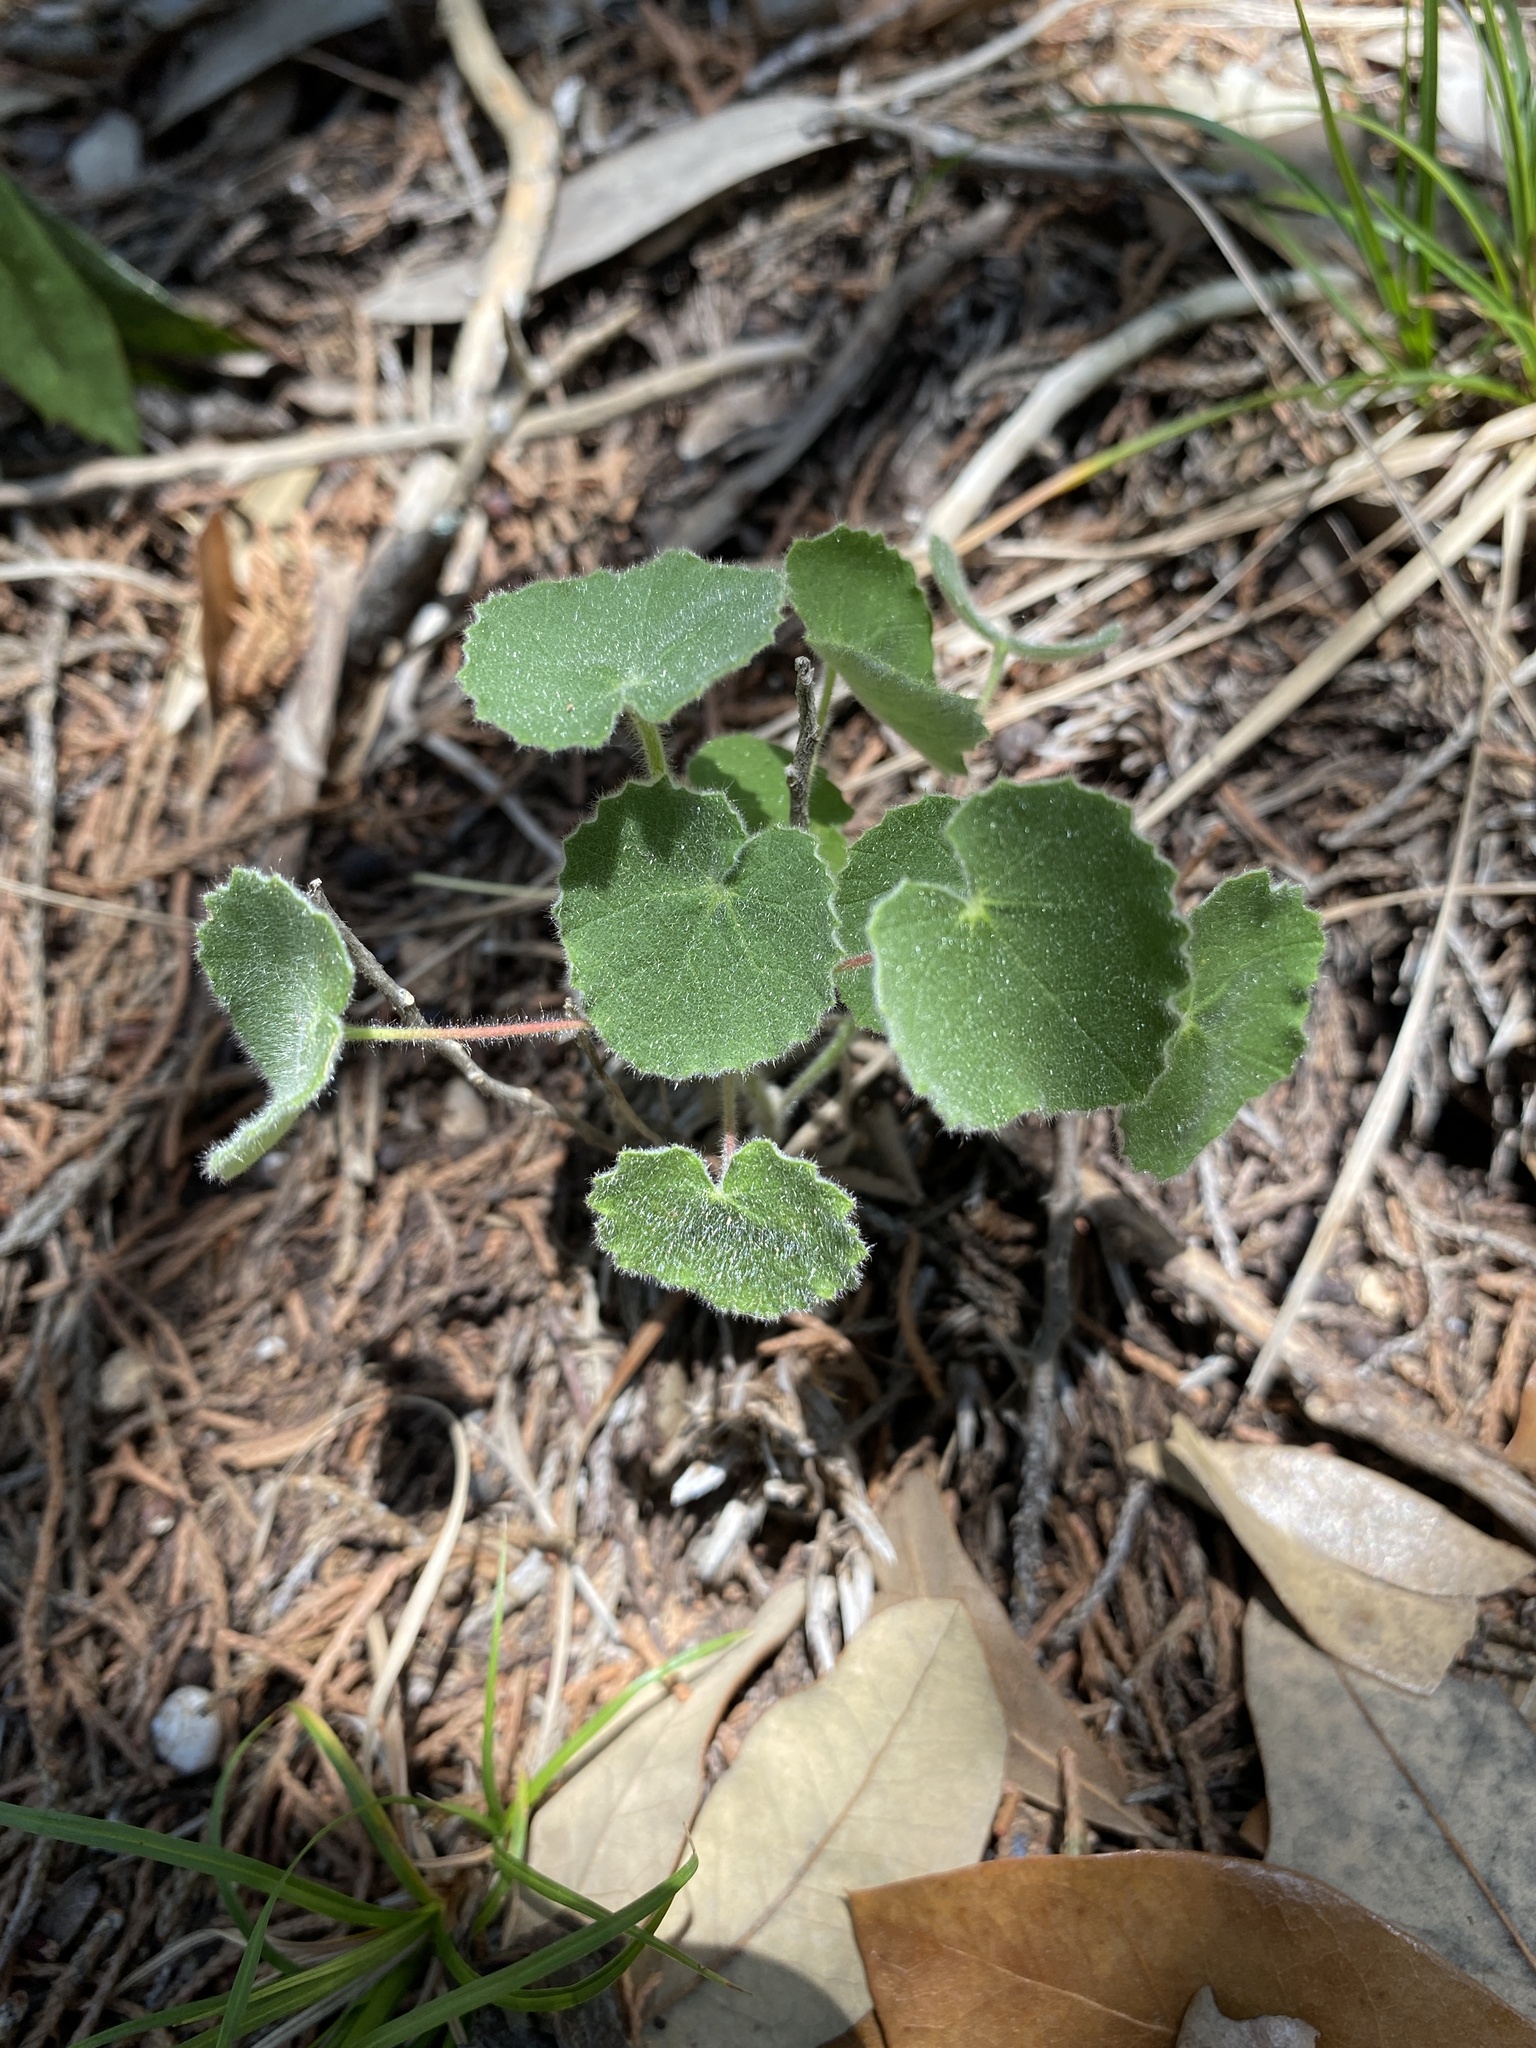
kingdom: Plantae
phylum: Tracheophyta
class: Magnoliopsida
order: Malvales
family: Malvaceae
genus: Abutilon
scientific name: Abutilon wrightii
